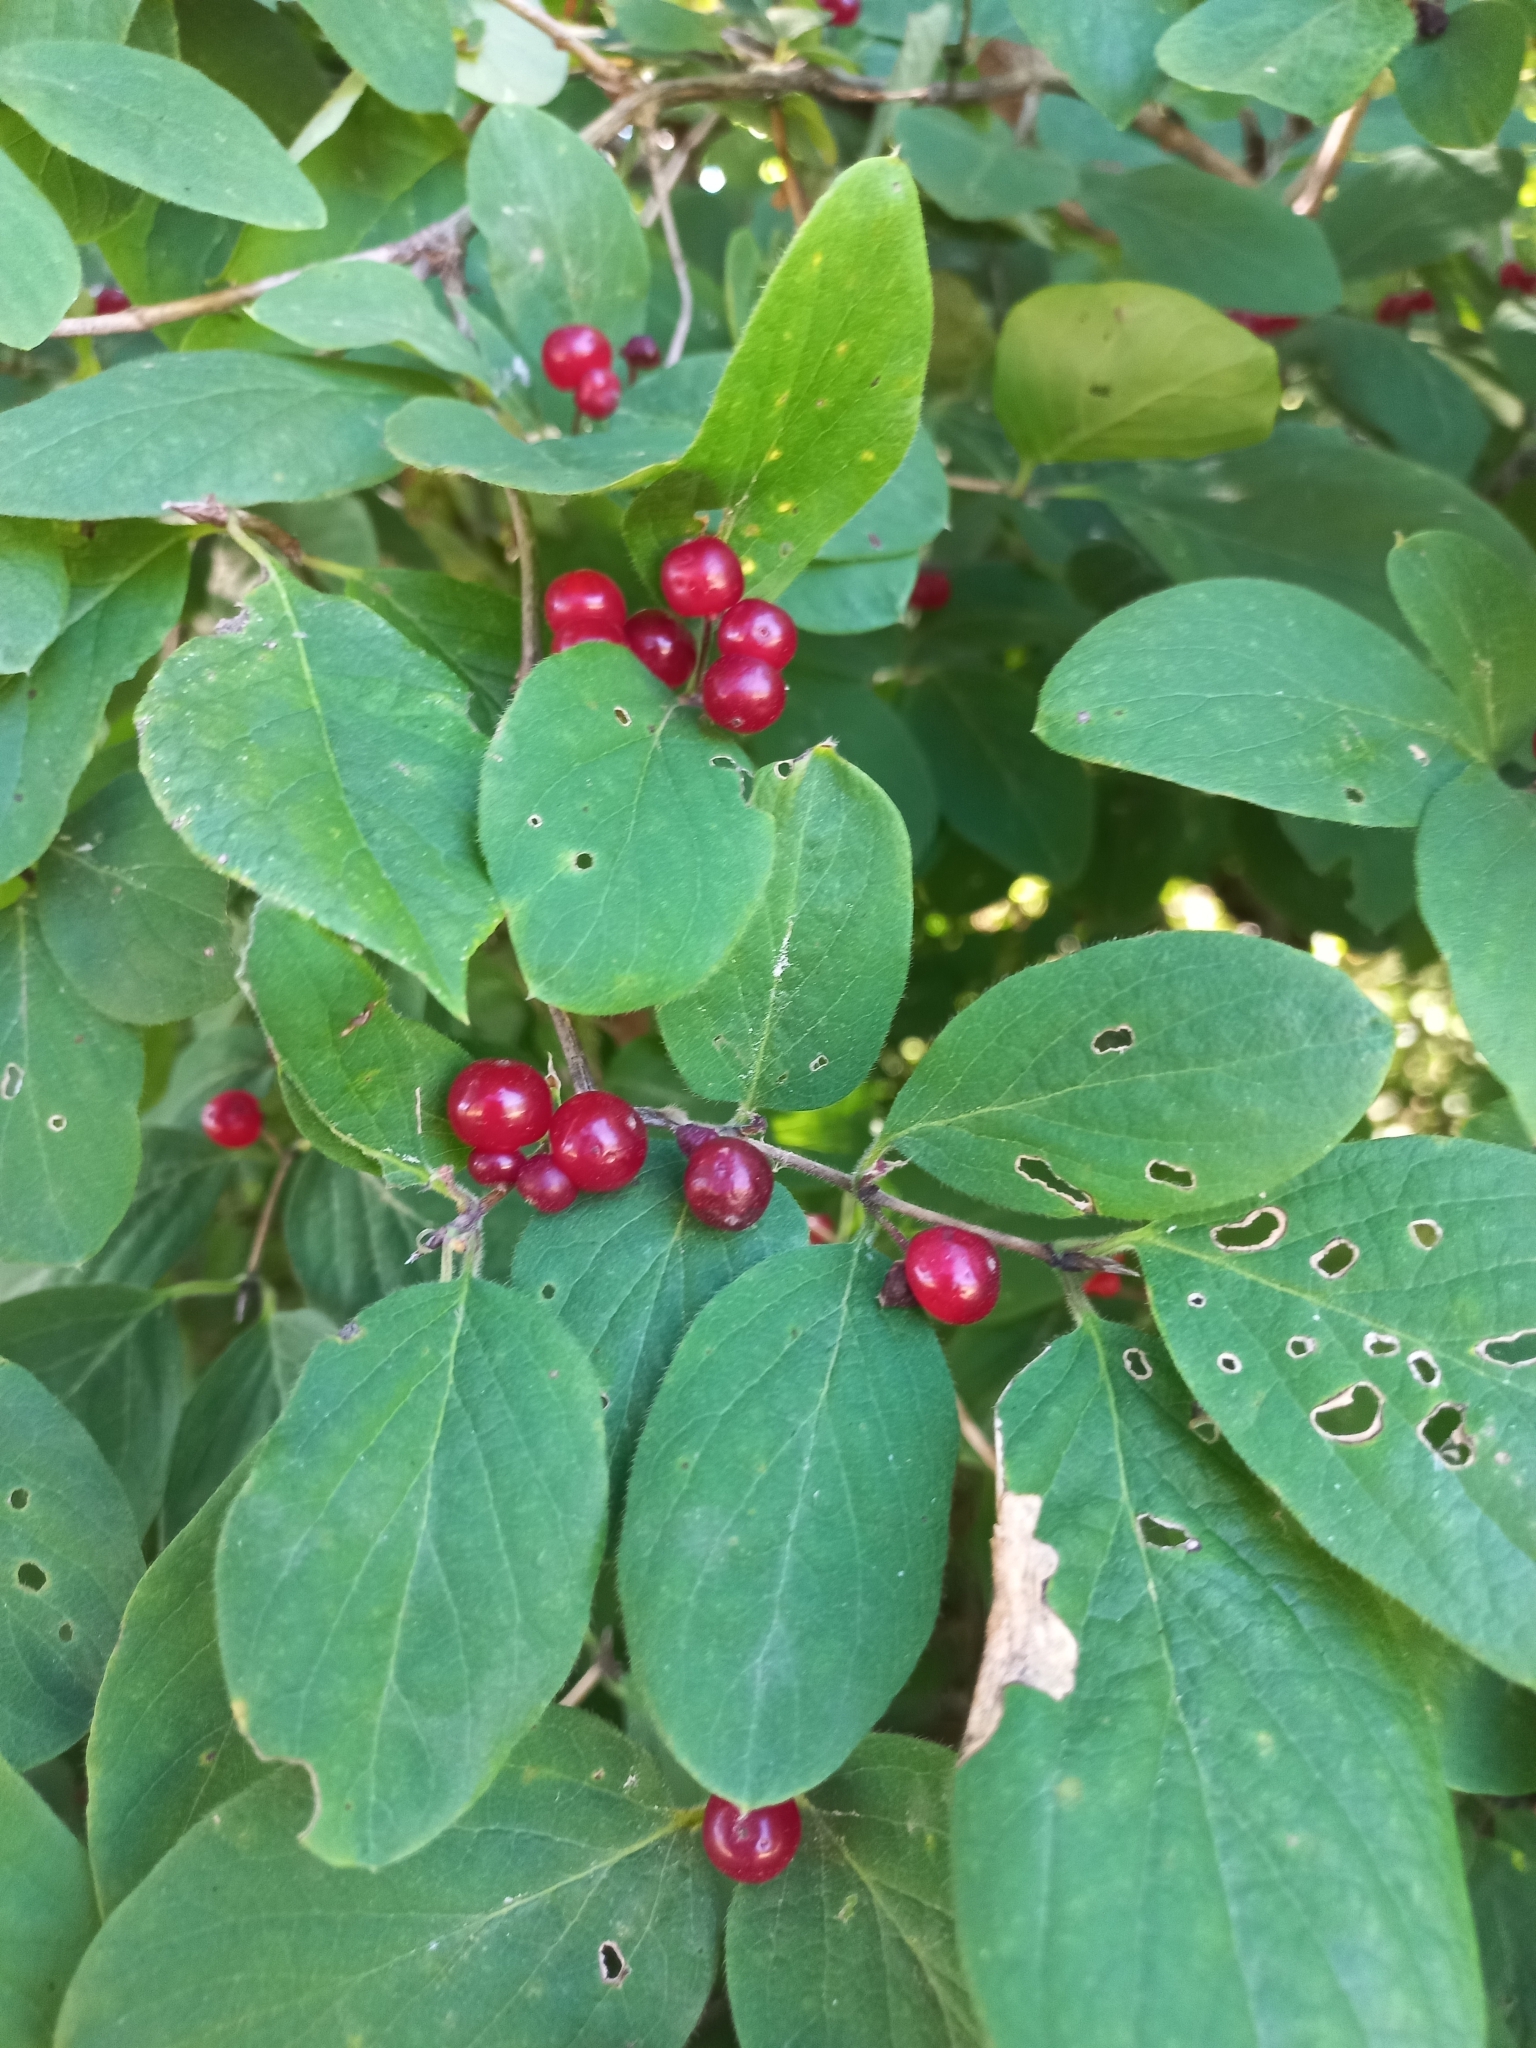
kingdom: Plantae
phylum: Tracheophyta
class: Magnoliopsida
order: Dipsacales
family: Caprifoliaceae
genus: Lonicera
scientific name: Lonicera xylosteum
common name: Fly honeysuckle
